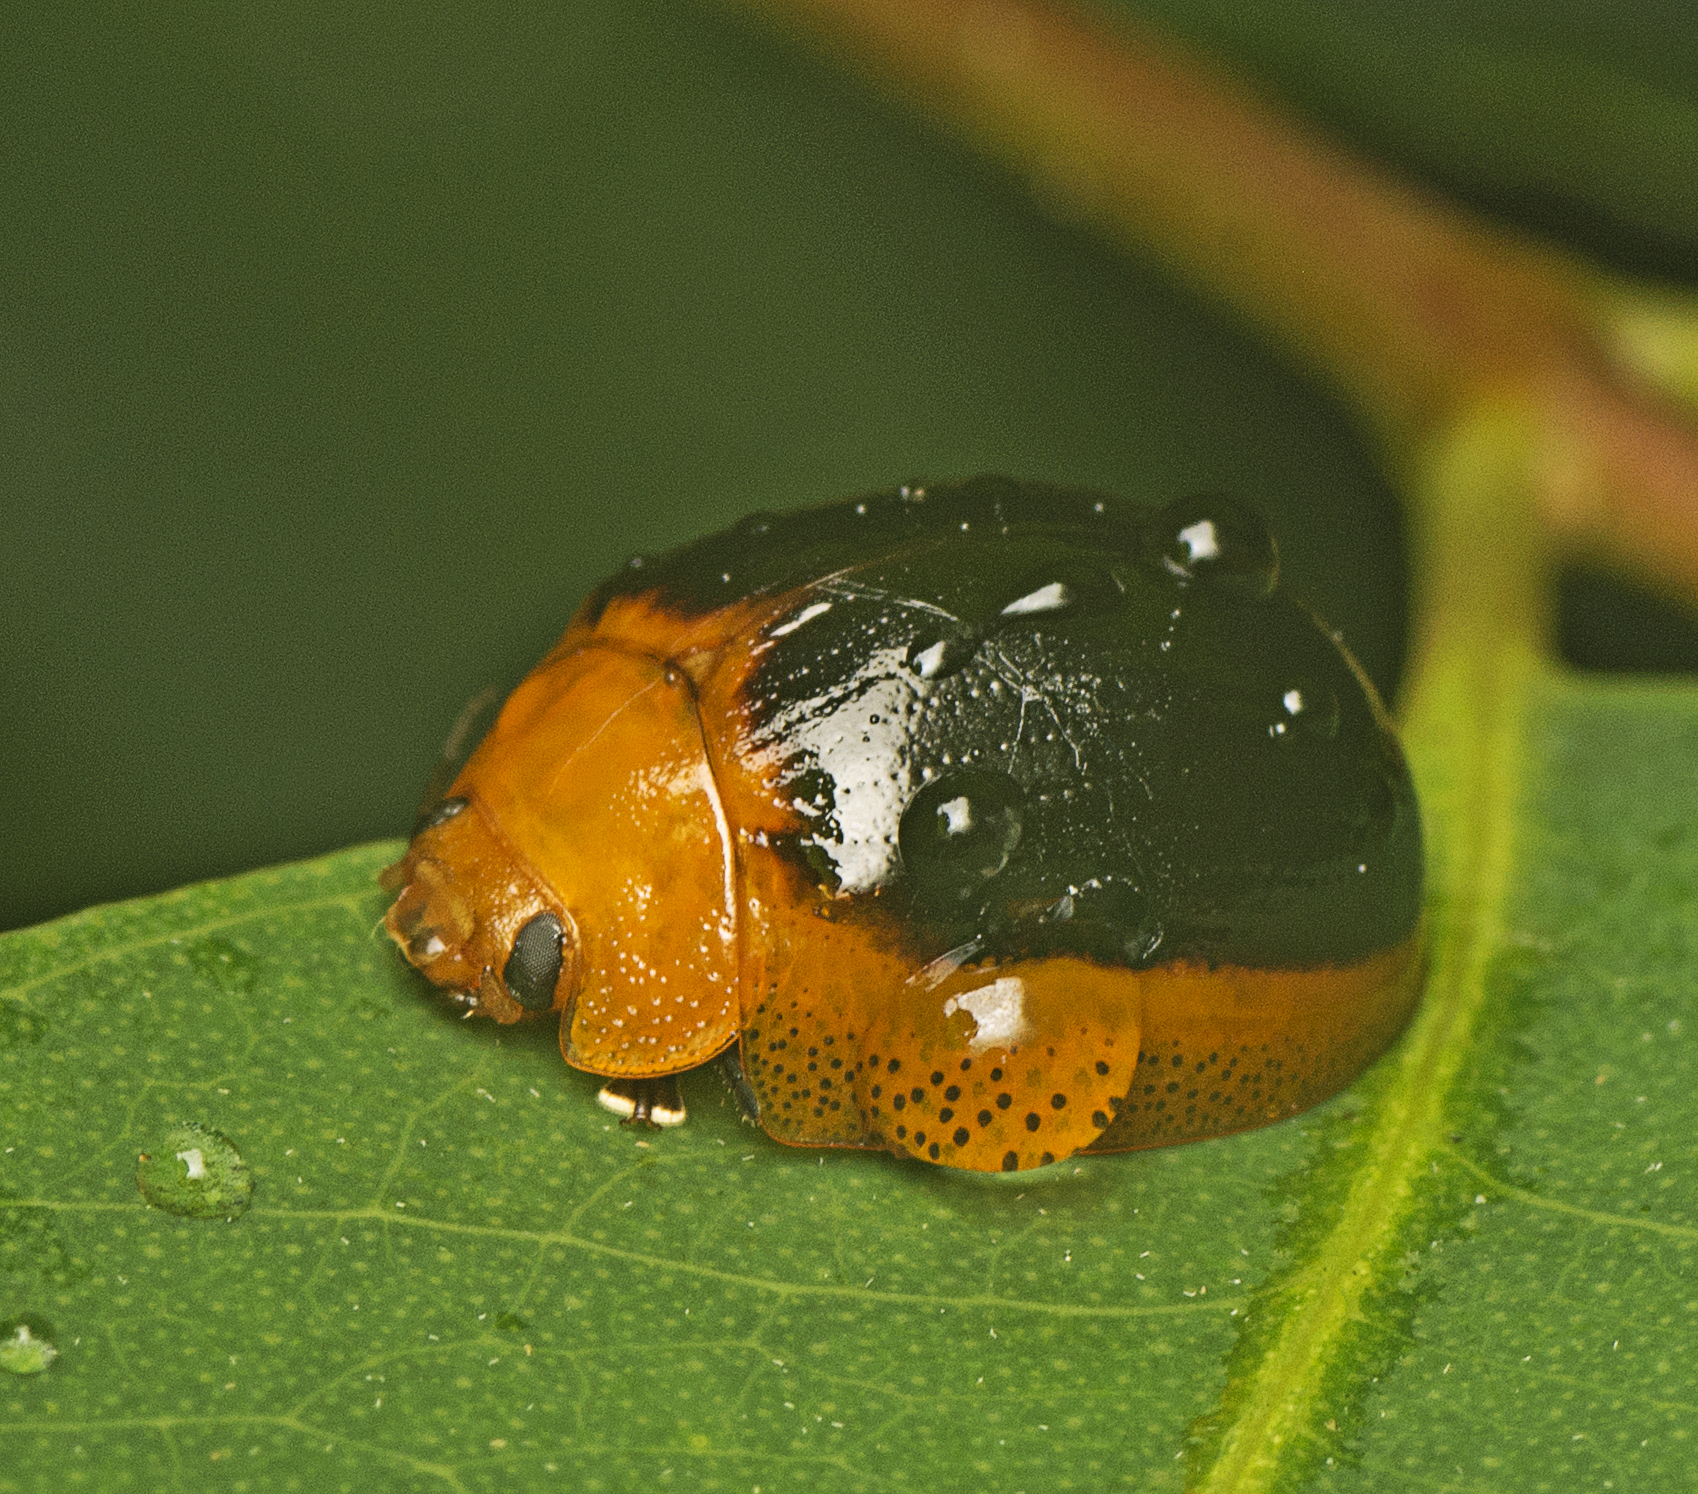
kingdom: Animalia
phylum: Arthropoda
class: Insecta
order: Coleoptera
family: Chrysomelidae
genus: Paropsisterna
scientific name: Paropsisterna cloelia
